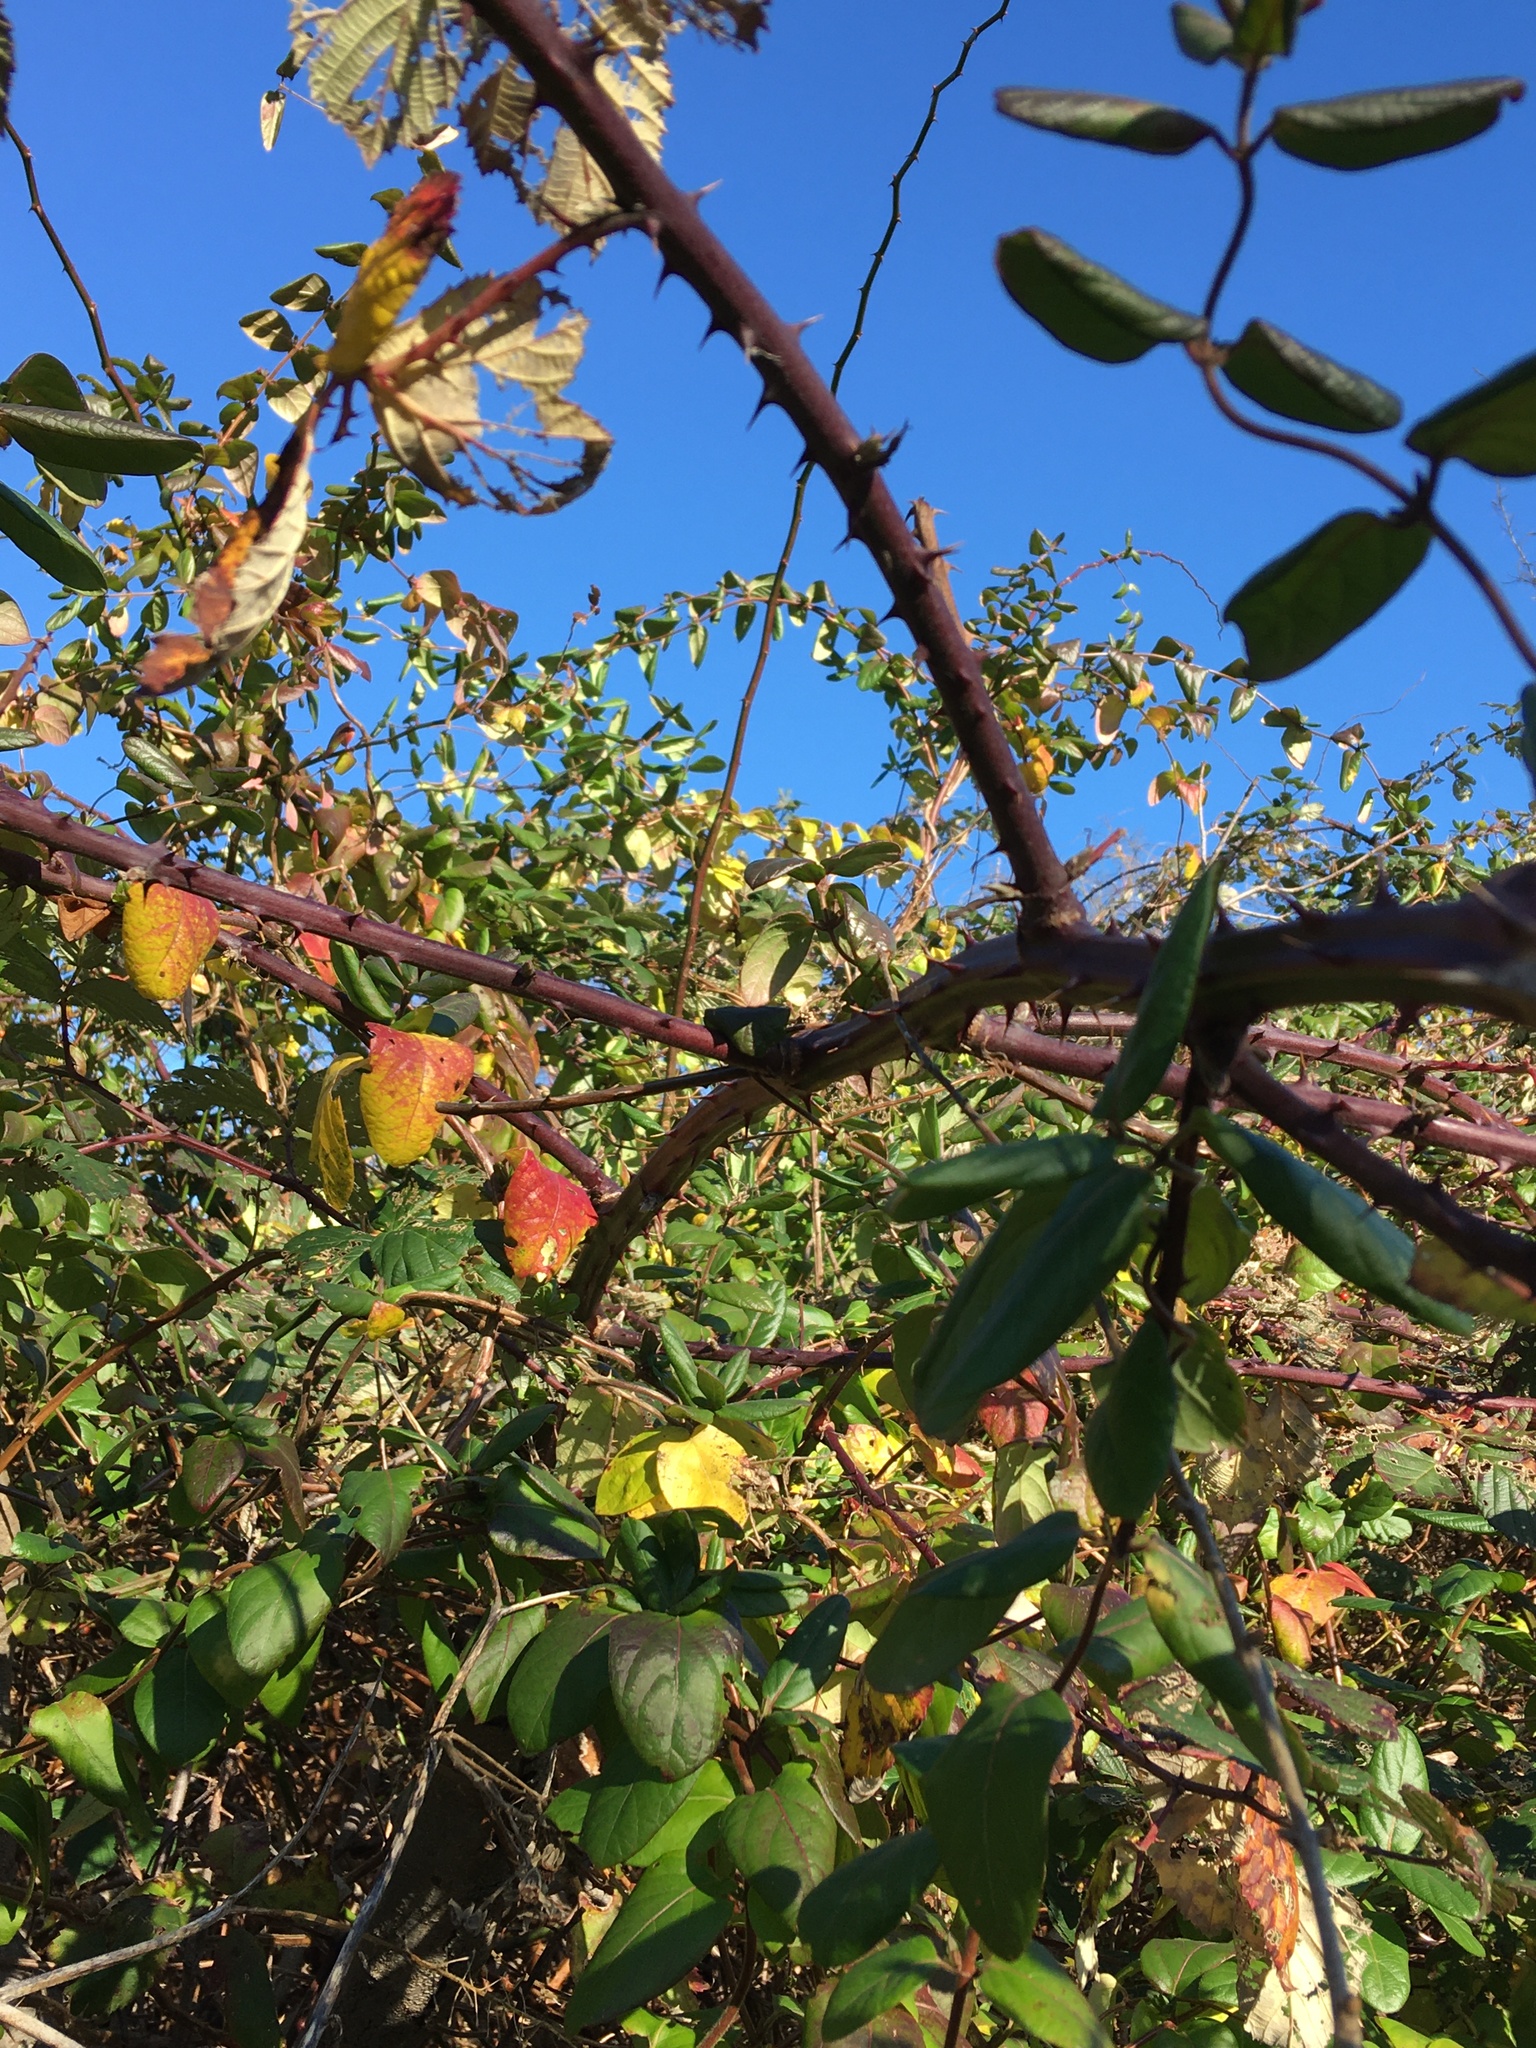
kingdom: Plantae
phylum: Tracheophyta
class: Magnoliopsida
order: Rosales
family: Rosaceae
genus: Rubus
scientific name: Rubus bifrons
